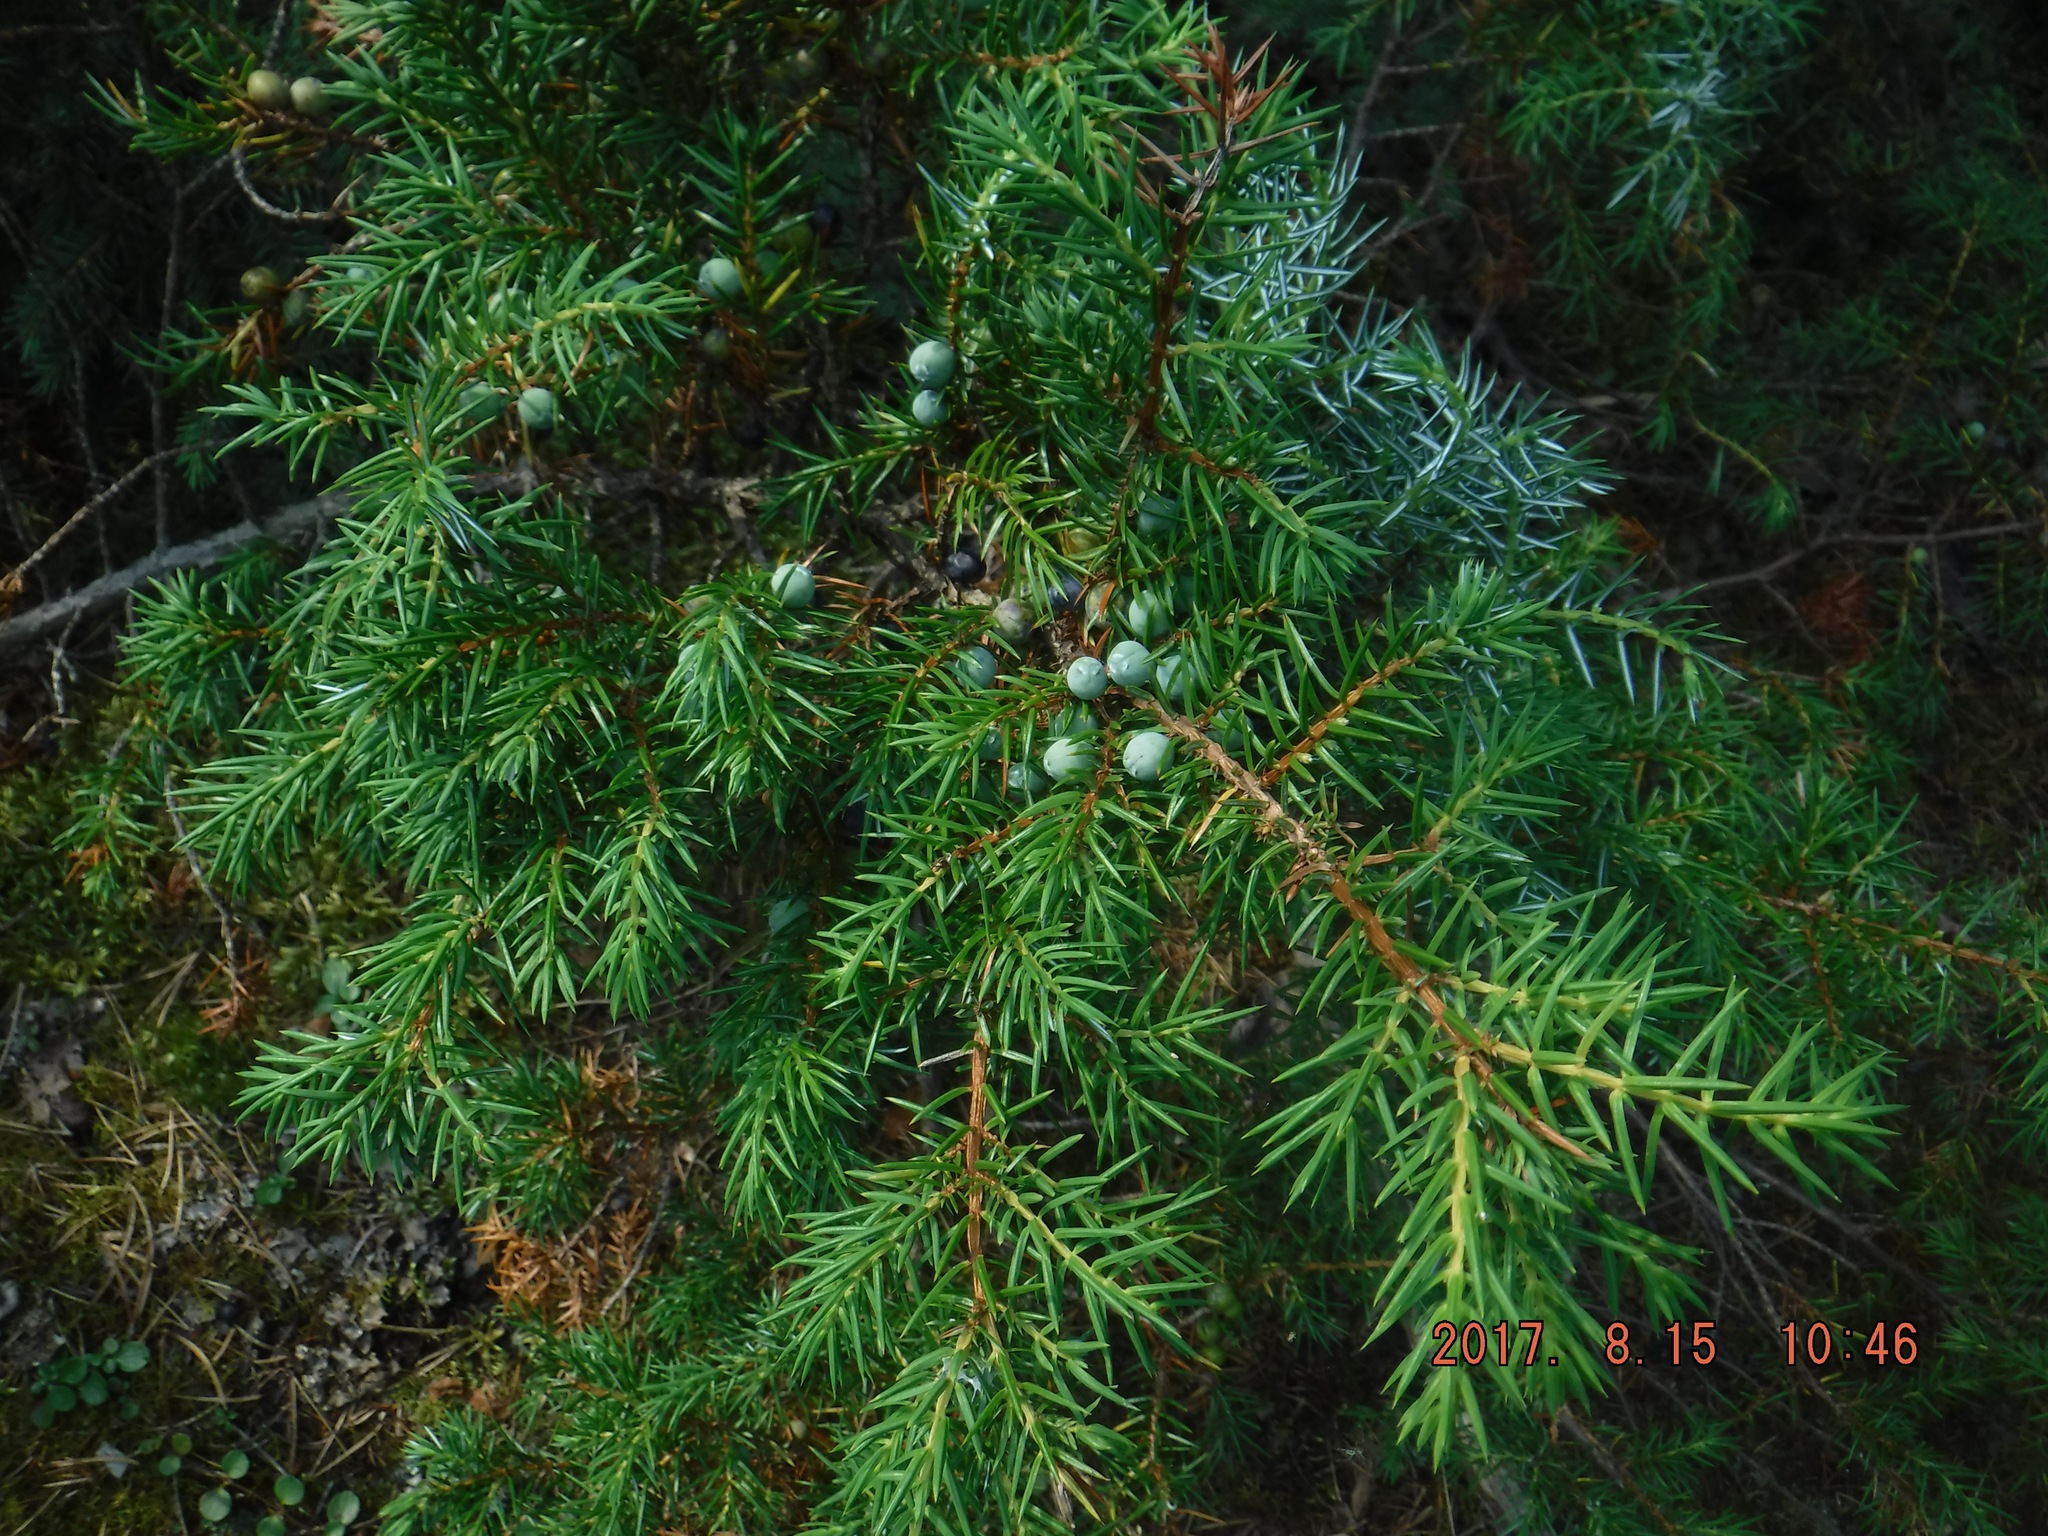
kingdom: Plantae
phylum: Tracheophyta
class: Pinopsida
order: Pinales
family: Cupressaceae
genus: Juniperus
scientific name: Juniperus communis
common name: Common juniper
